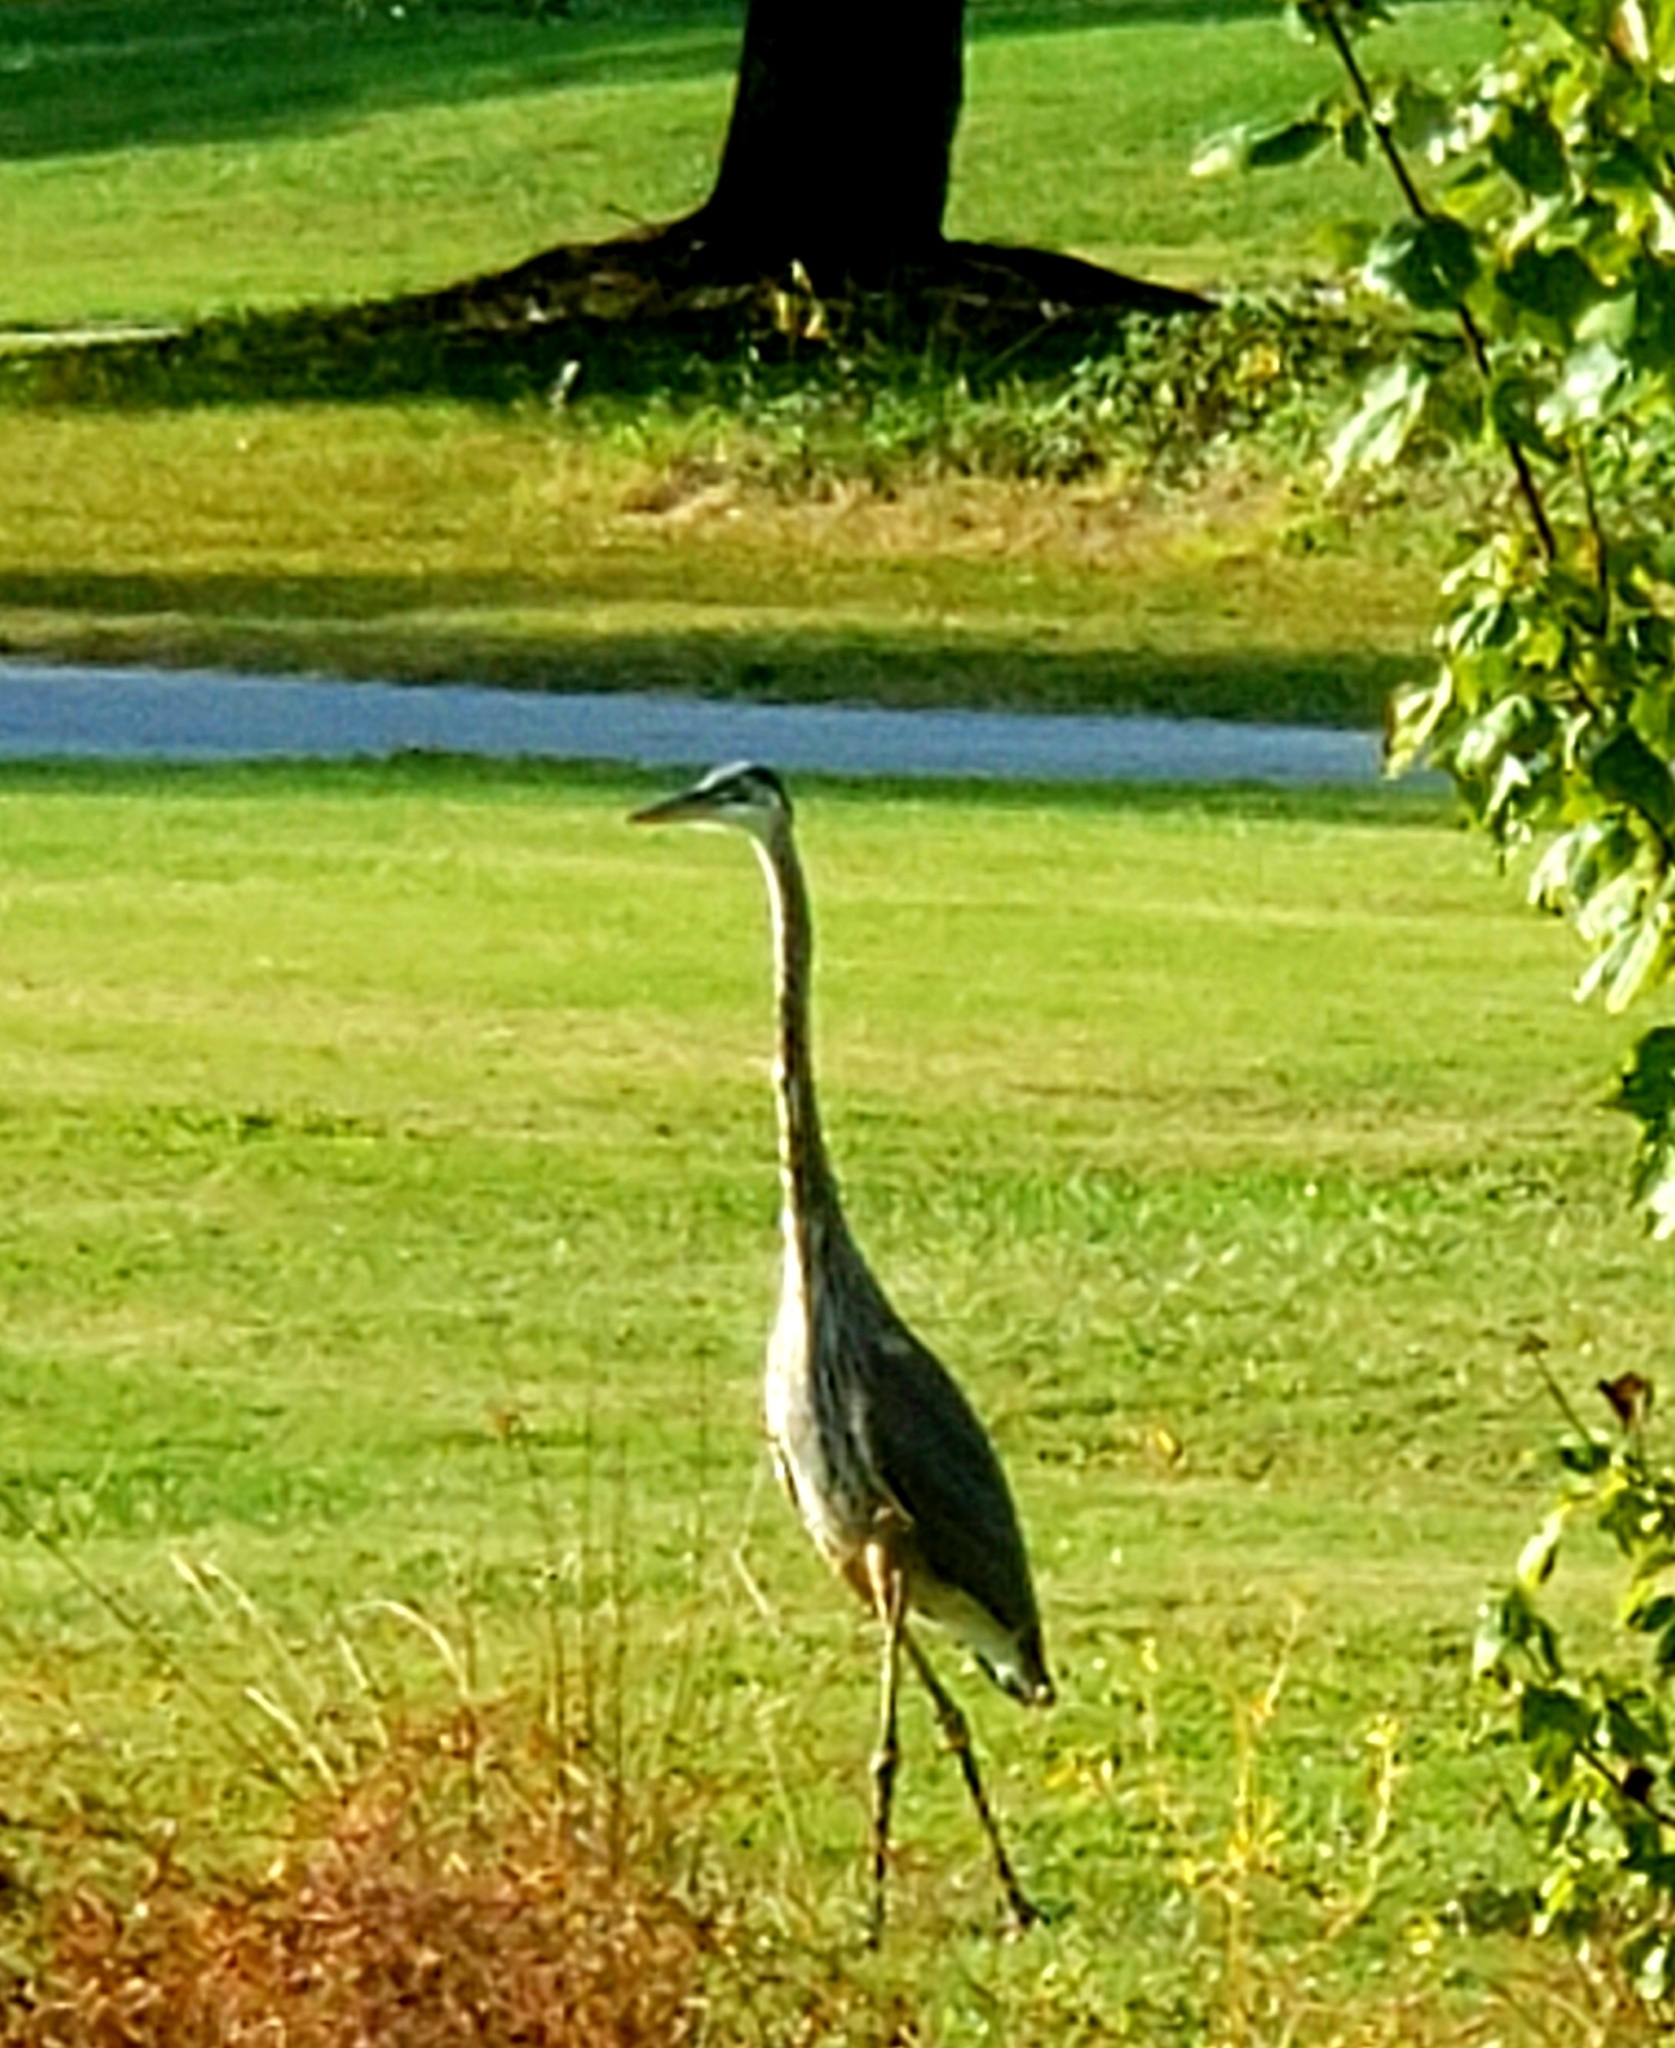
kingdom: Animalia
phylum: Chordata
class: Aves
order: Pelecaniformes
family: Ardeidae
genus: Ardea
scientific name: Ardea herodias
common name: Great blue heron
